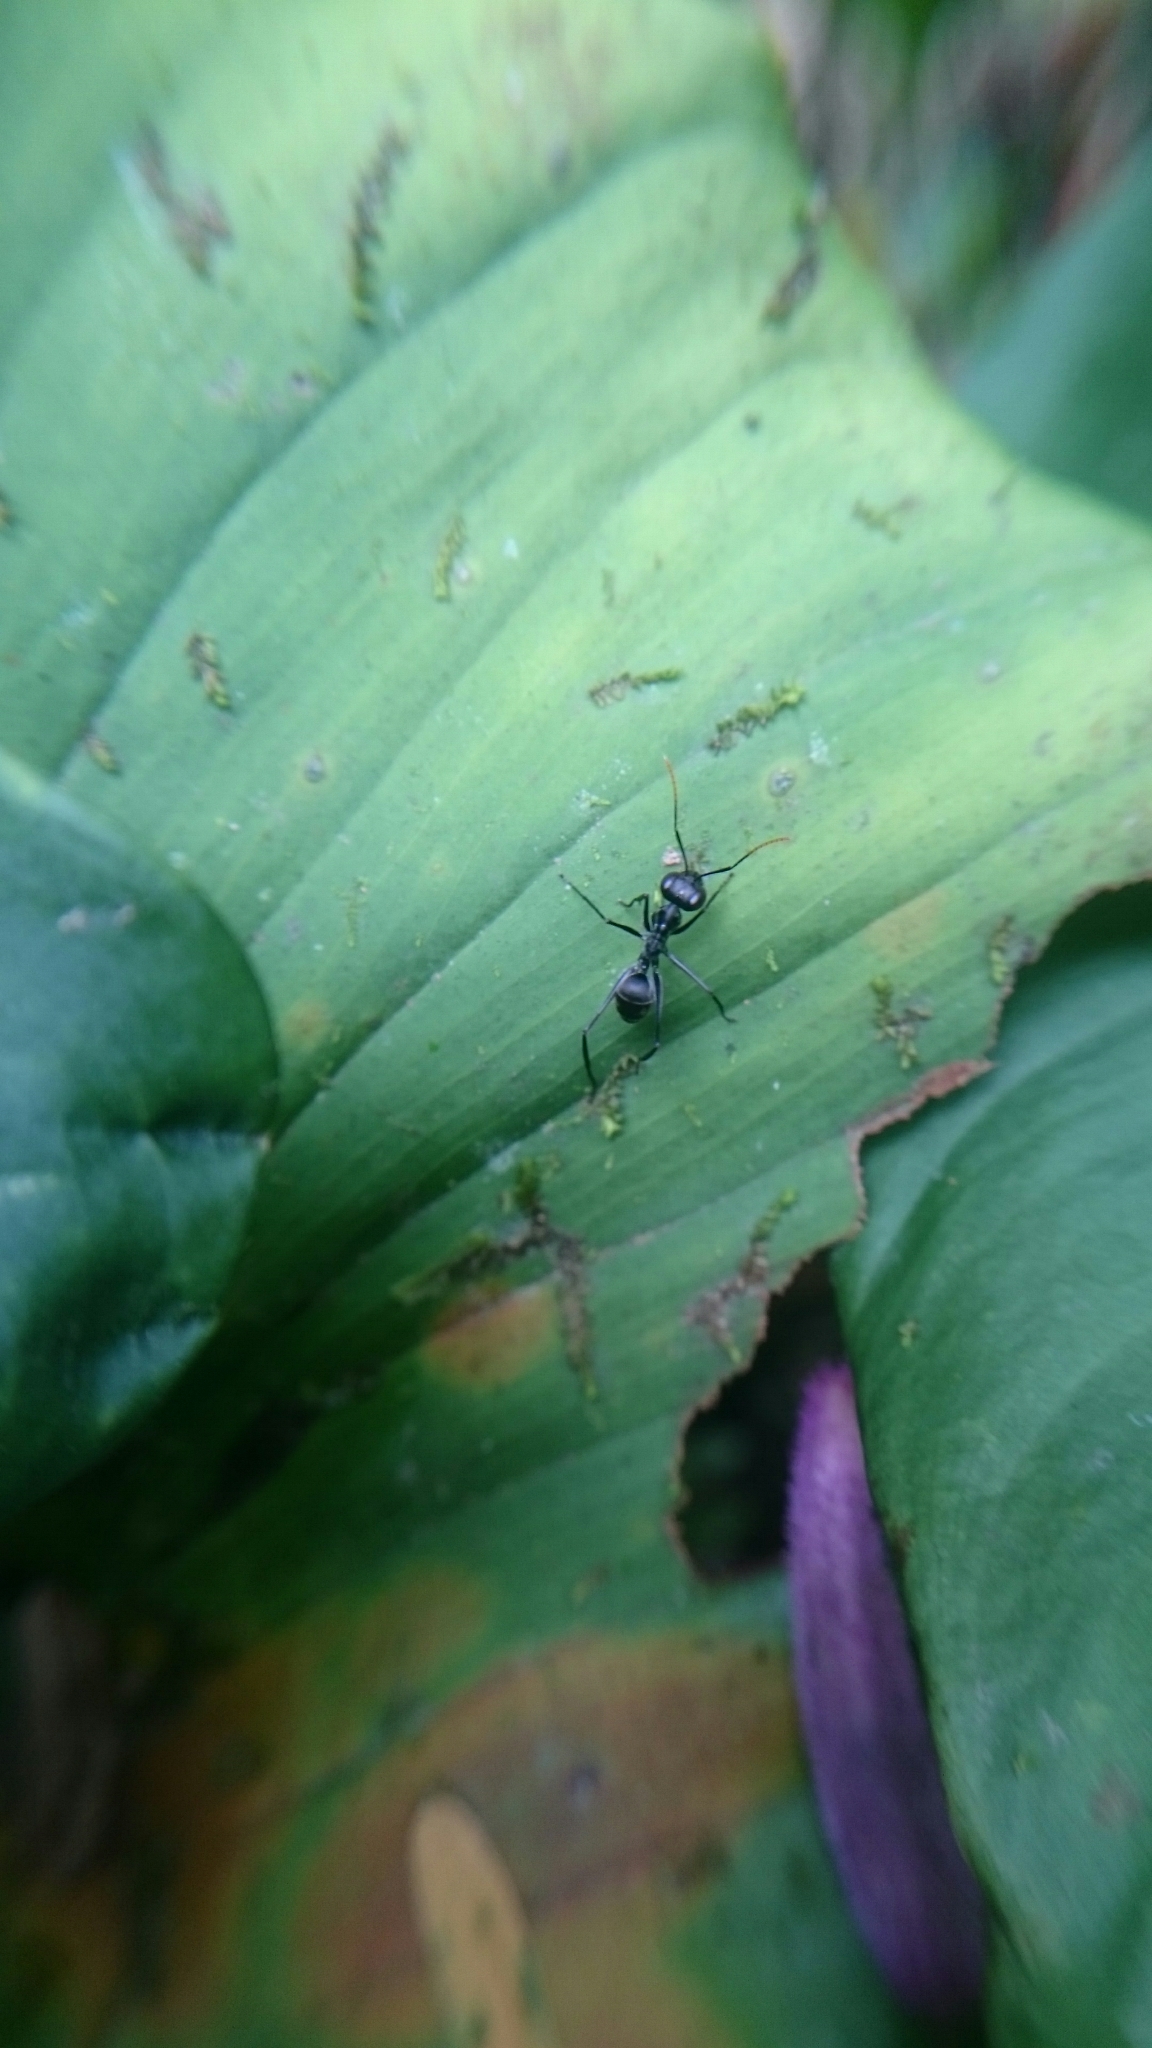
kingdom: Animalia
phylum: Arthropoda
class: Insecta
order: Hymenoptera
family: Formicidae
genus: Gigantiops
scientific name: Gigantiops destructor
